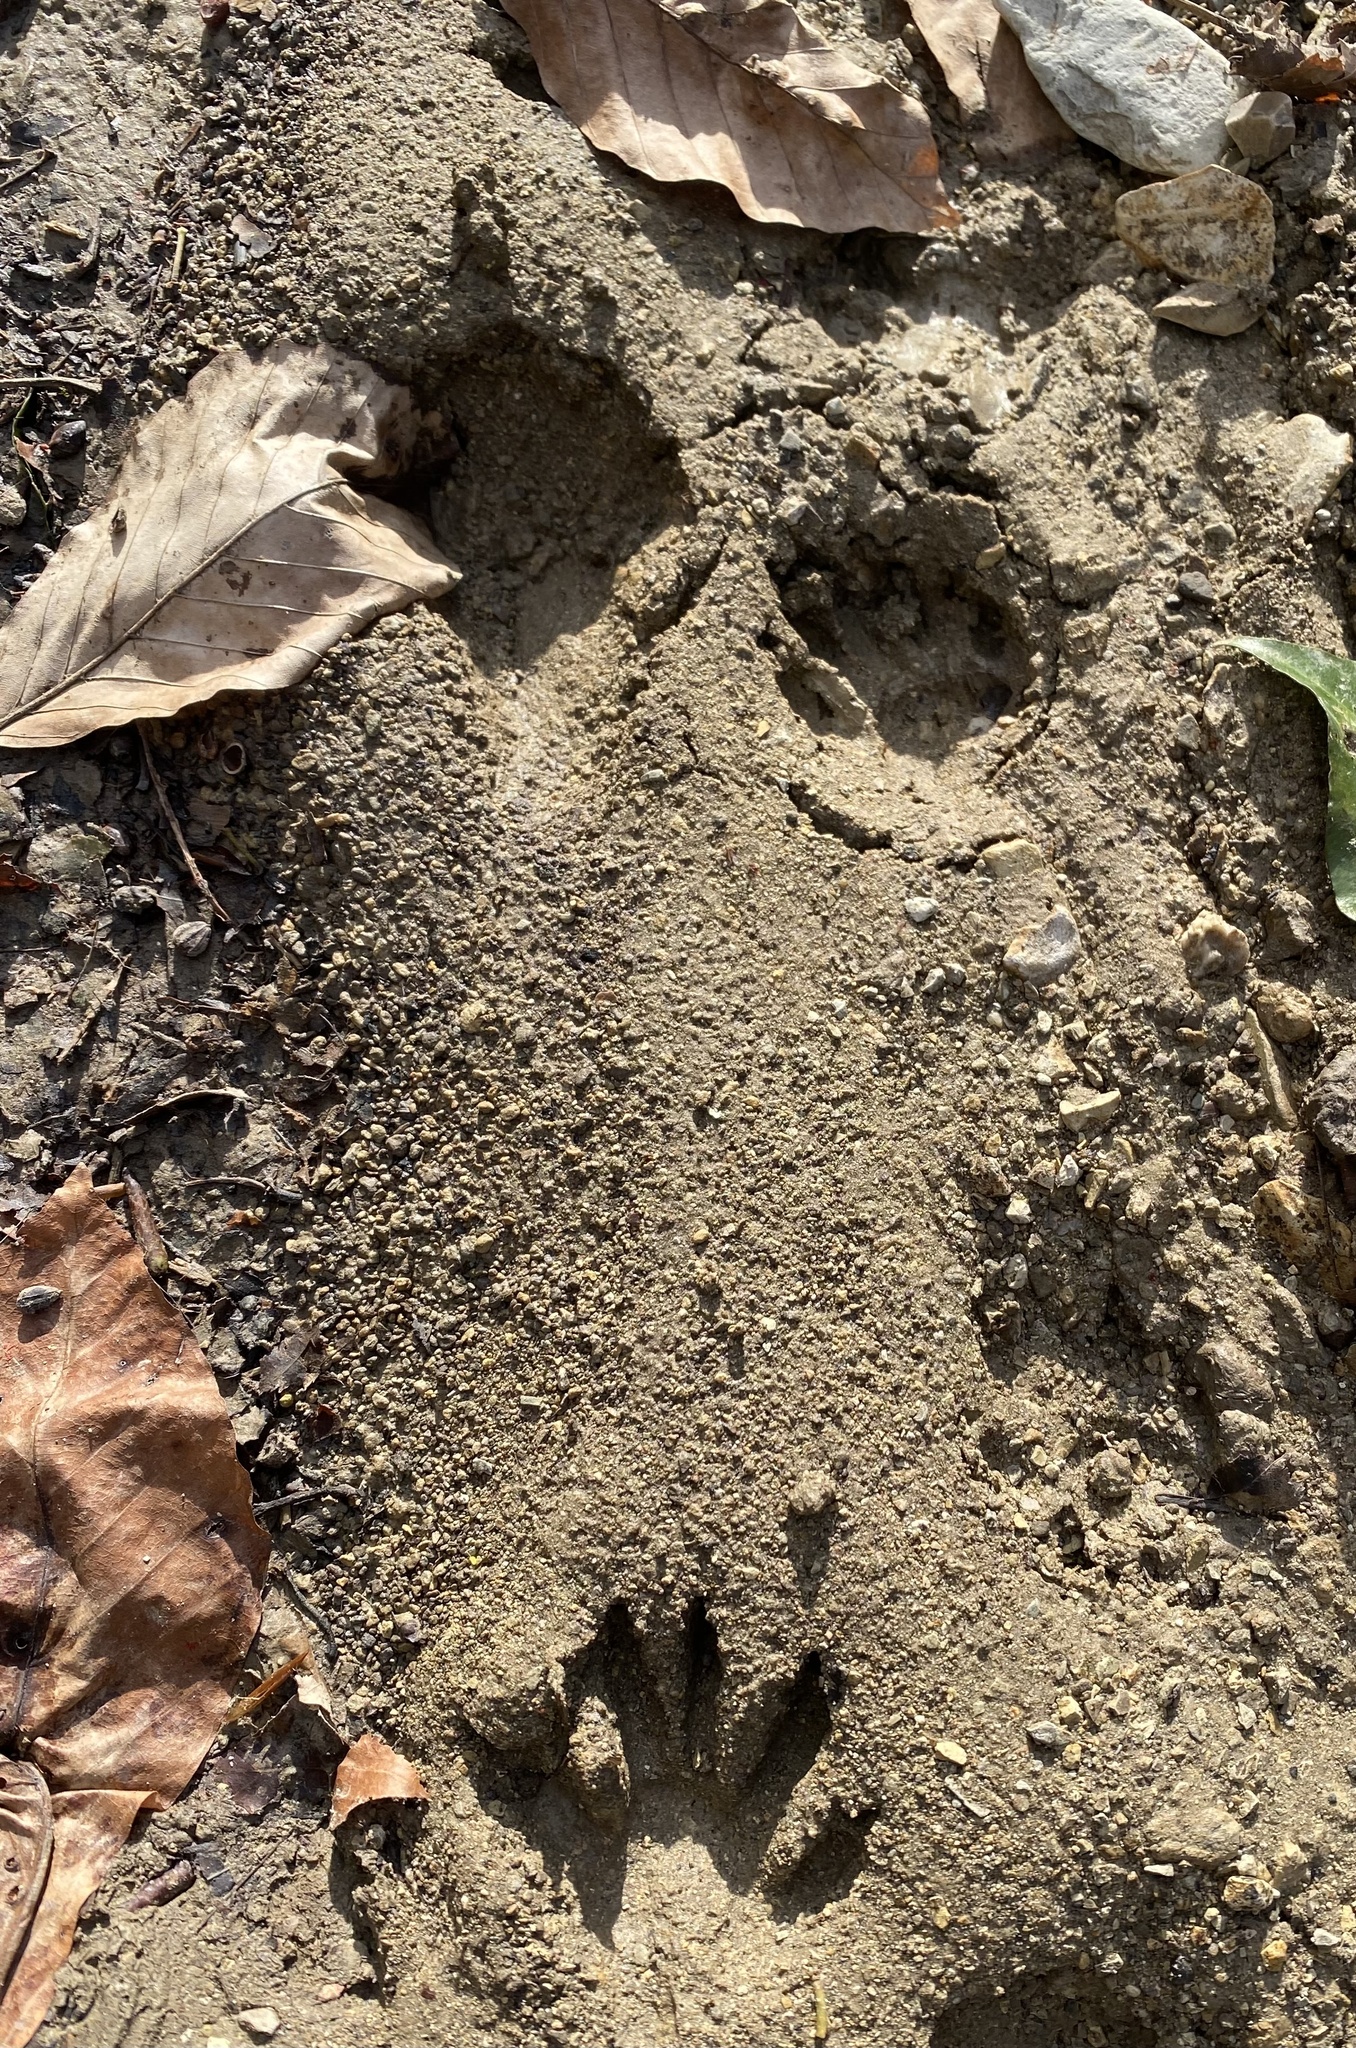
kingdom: Animalia
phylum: Chordata
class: Mammalia
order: Carnivora
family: Procyonidae
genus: Procyon
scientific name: Procyon lotor
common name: Raccoon
